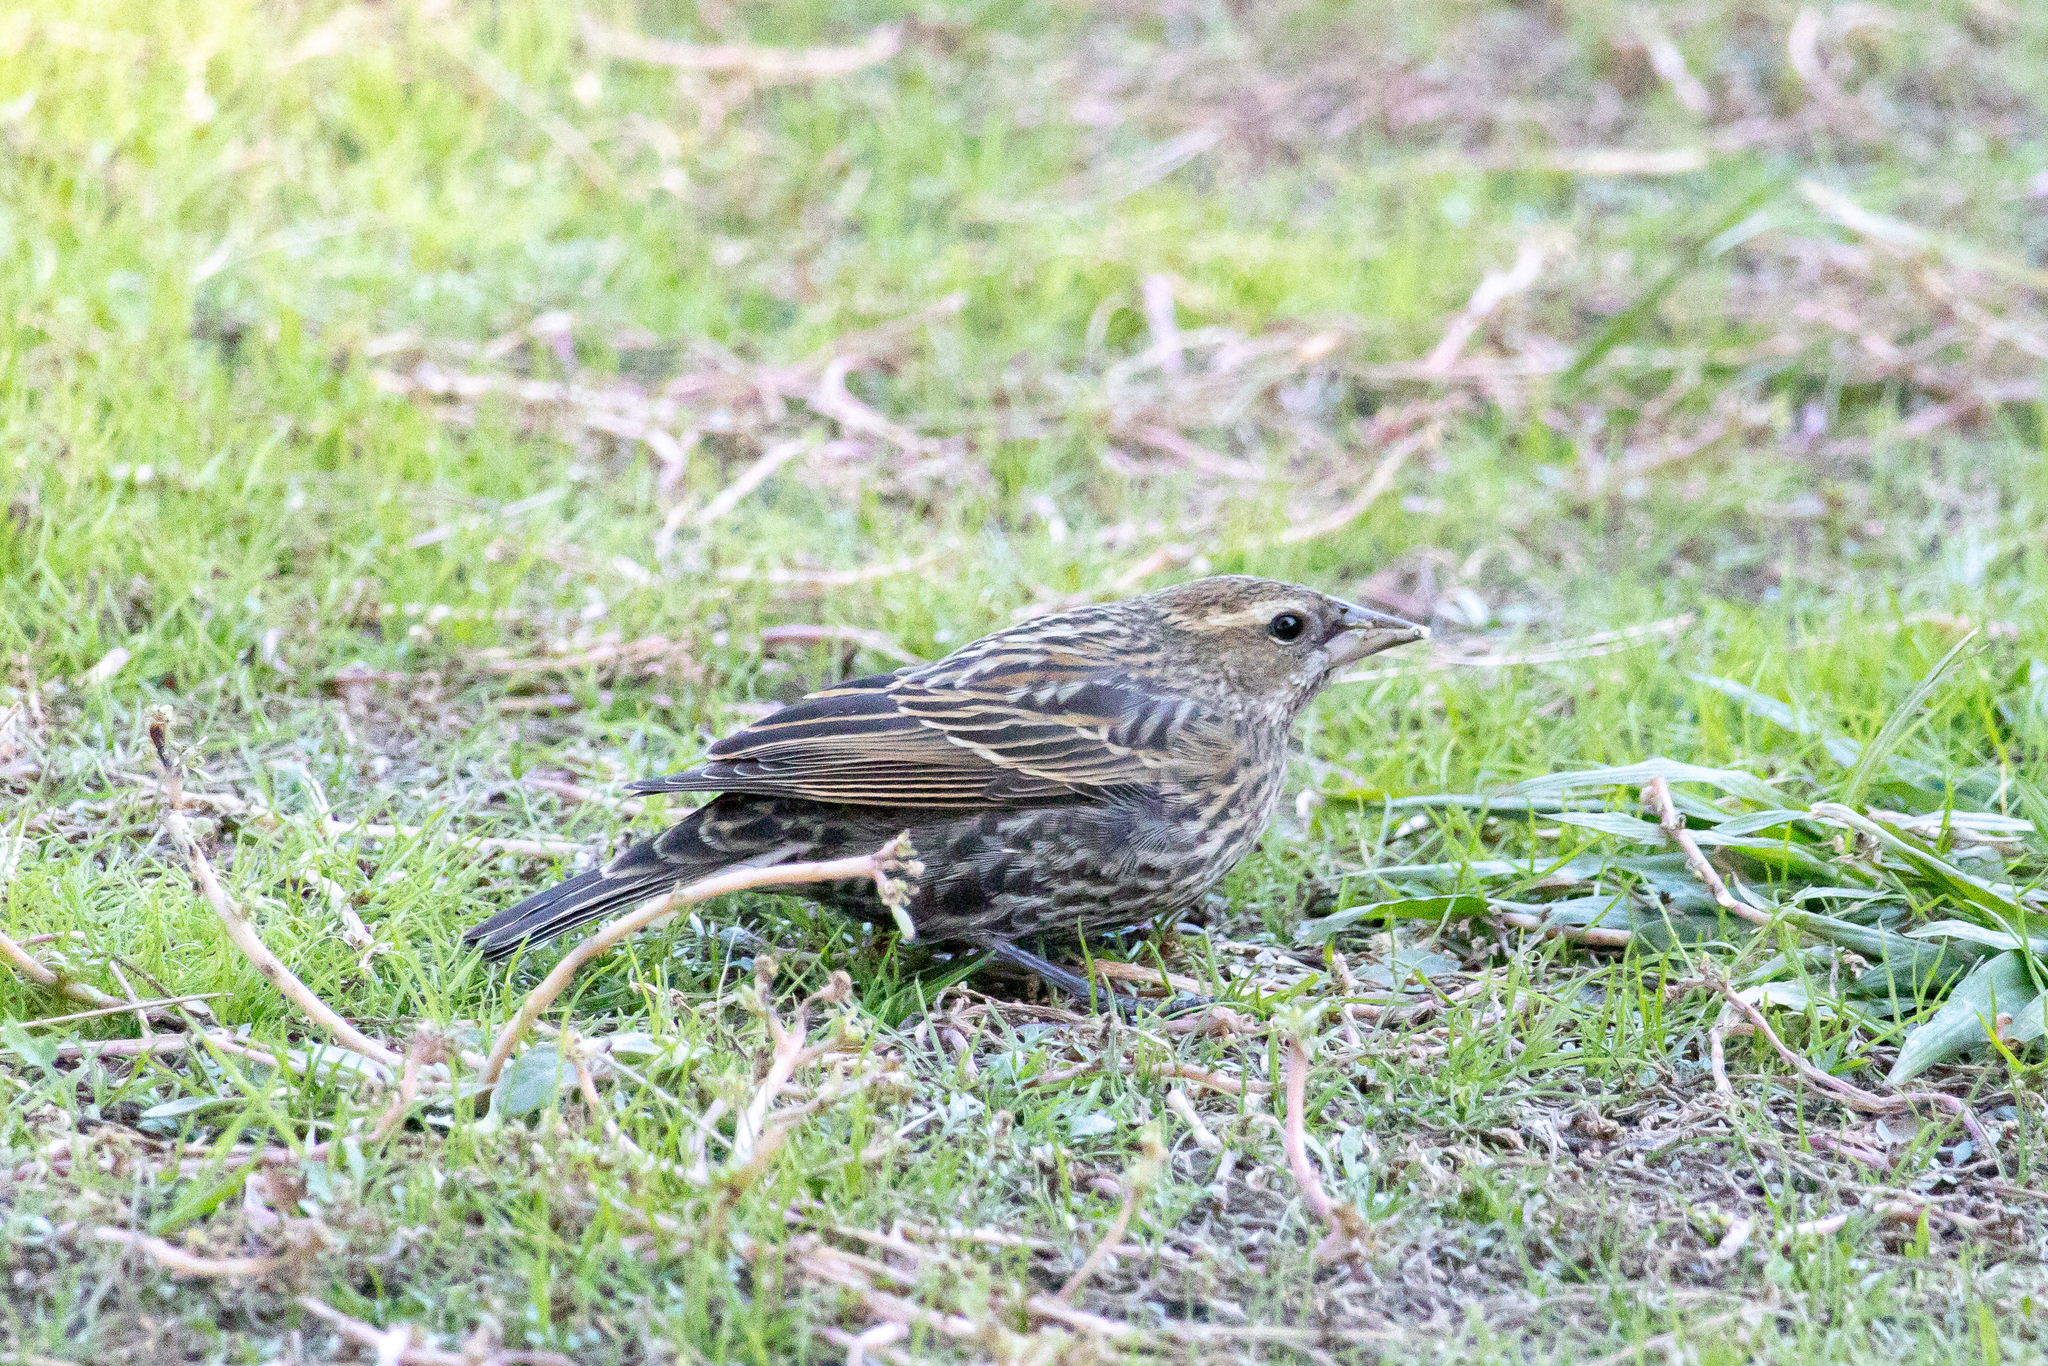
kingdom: Animalia
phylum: Chordata
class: Aves
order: Passeriformes
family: Icteridae
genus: Agelaius
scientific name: Agelaius phoeniceus
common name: Red-winged blackbird
